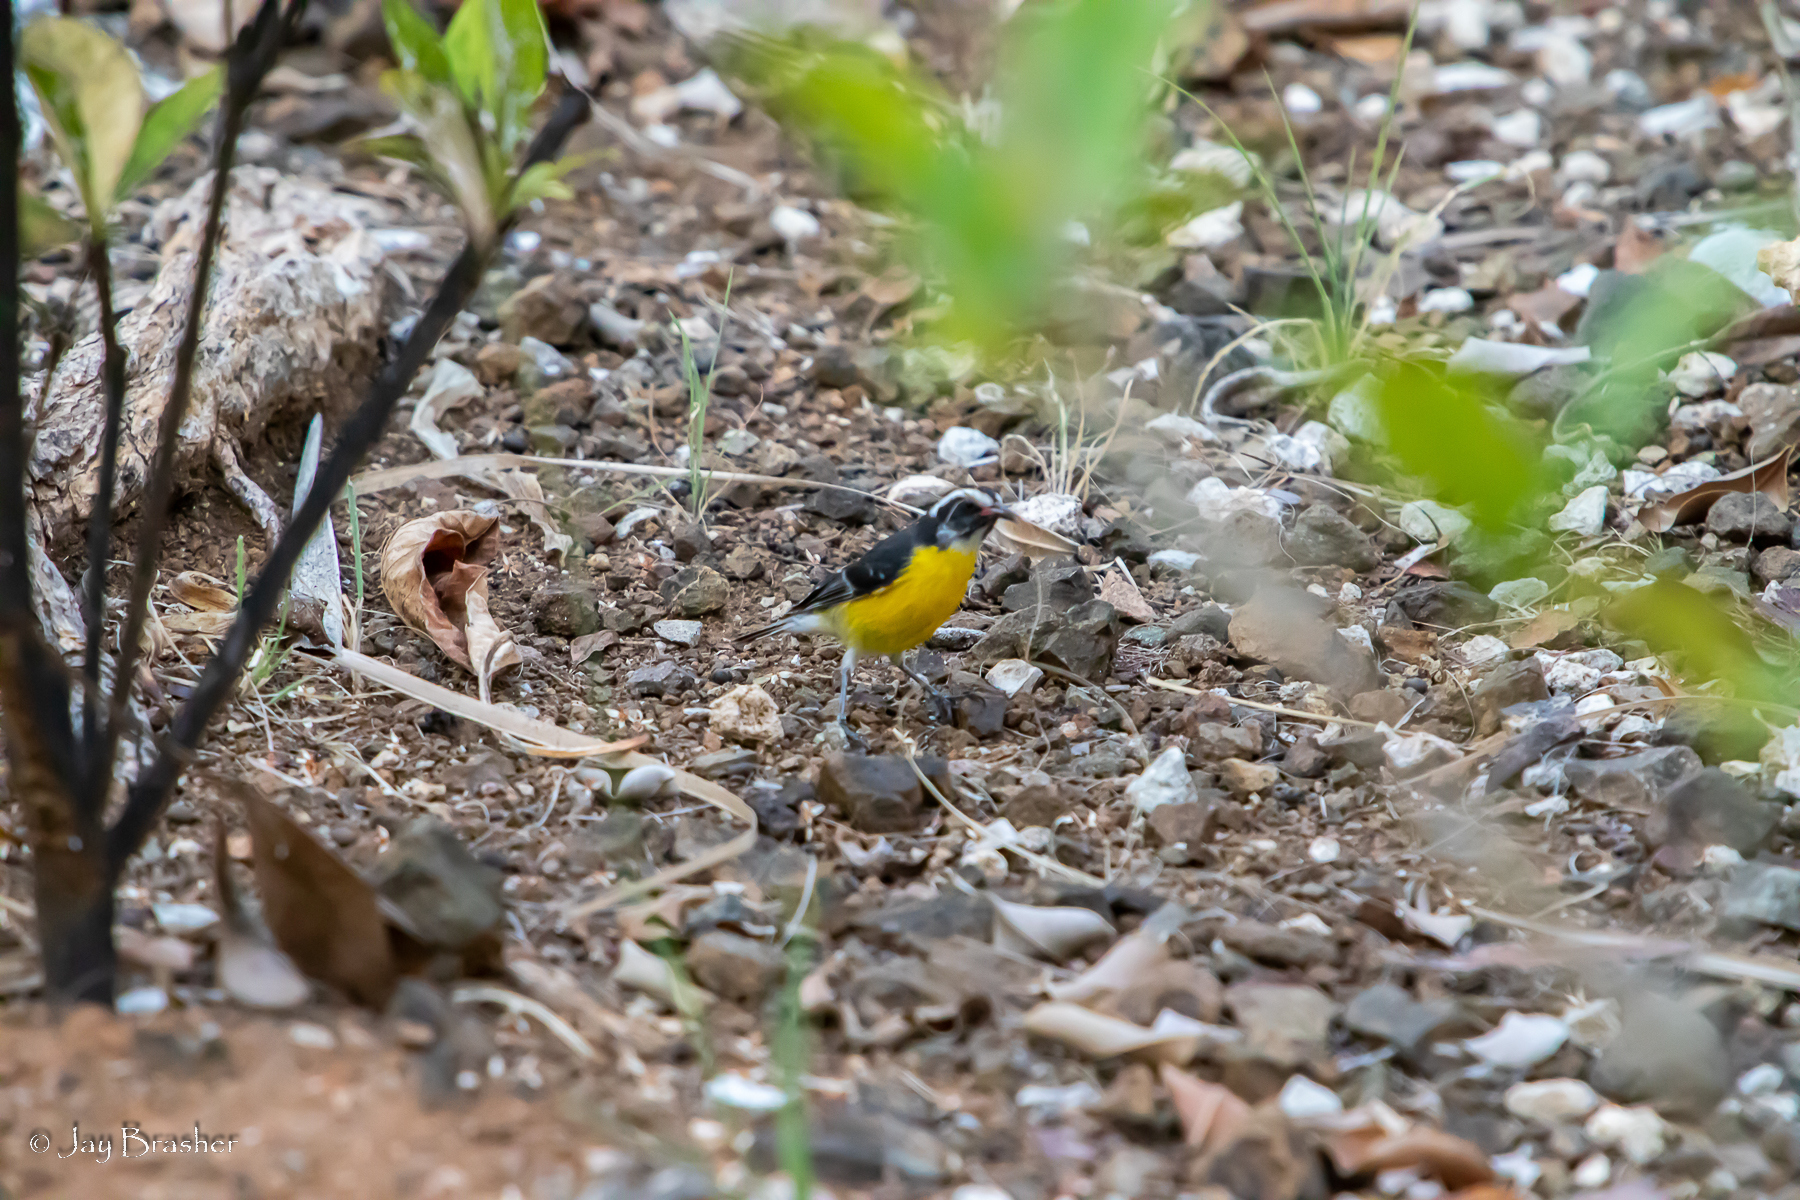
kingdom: Animalia
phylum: Chordata
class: Aves
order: Passeriformes
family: Thraupidae
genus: Coereba
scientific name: Coereba flaveola
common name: Bananaquit
